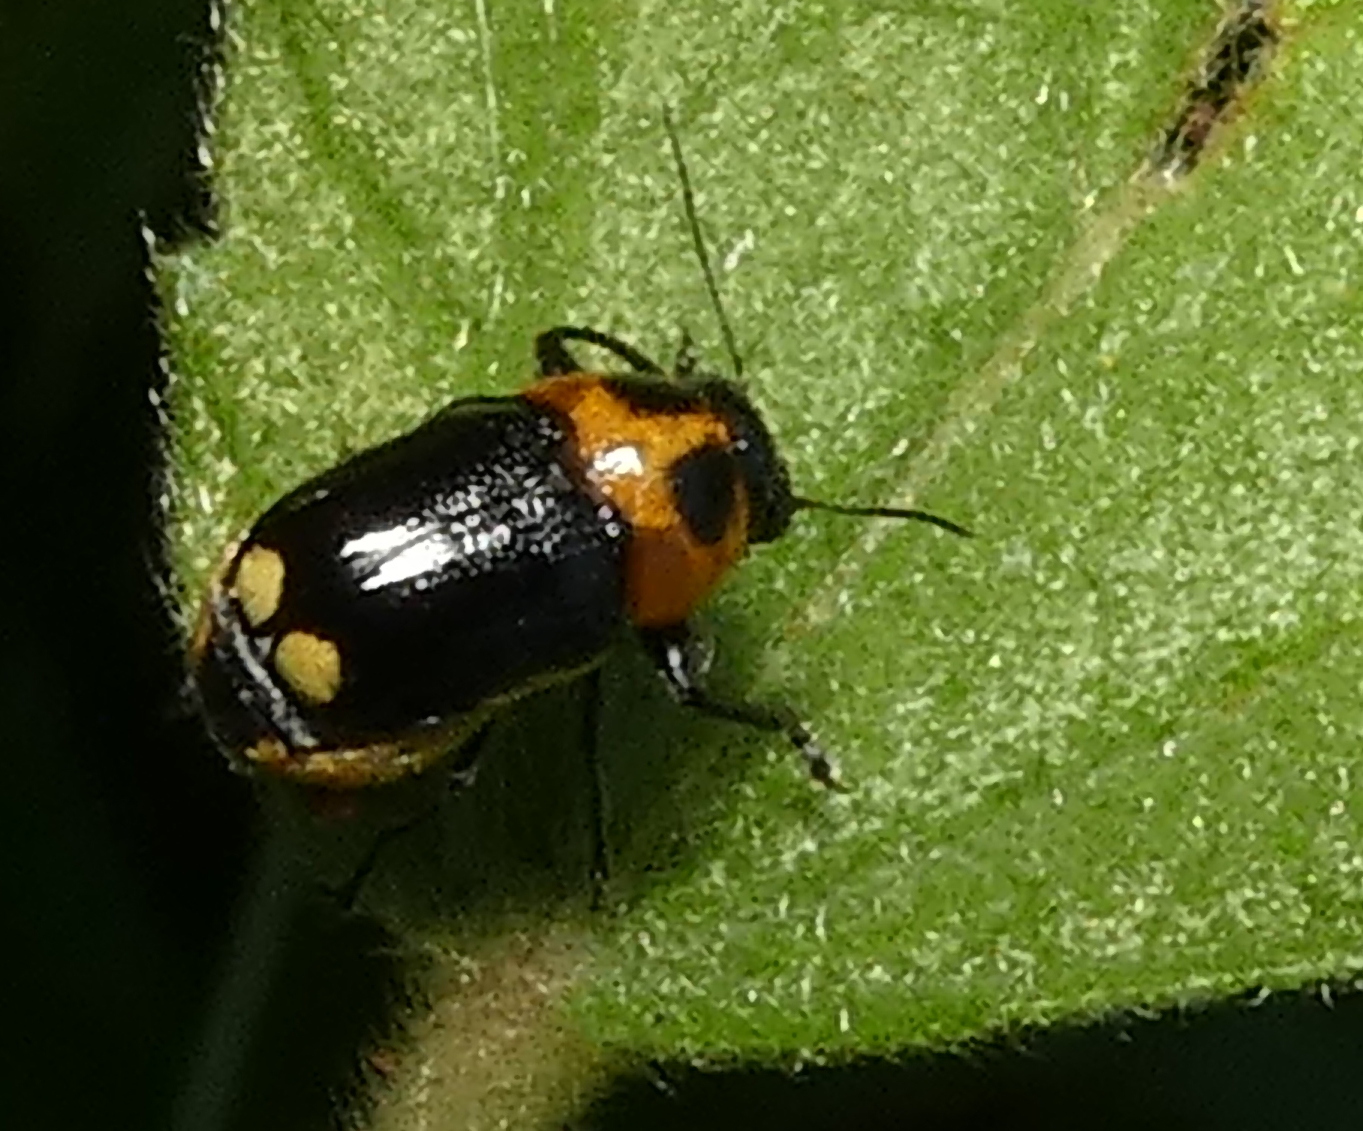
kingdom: Animalia
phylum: Arthropoda
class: Insecta
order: Coleoptera
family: Chrysomelidae
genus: Griburius
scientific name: Griburius
